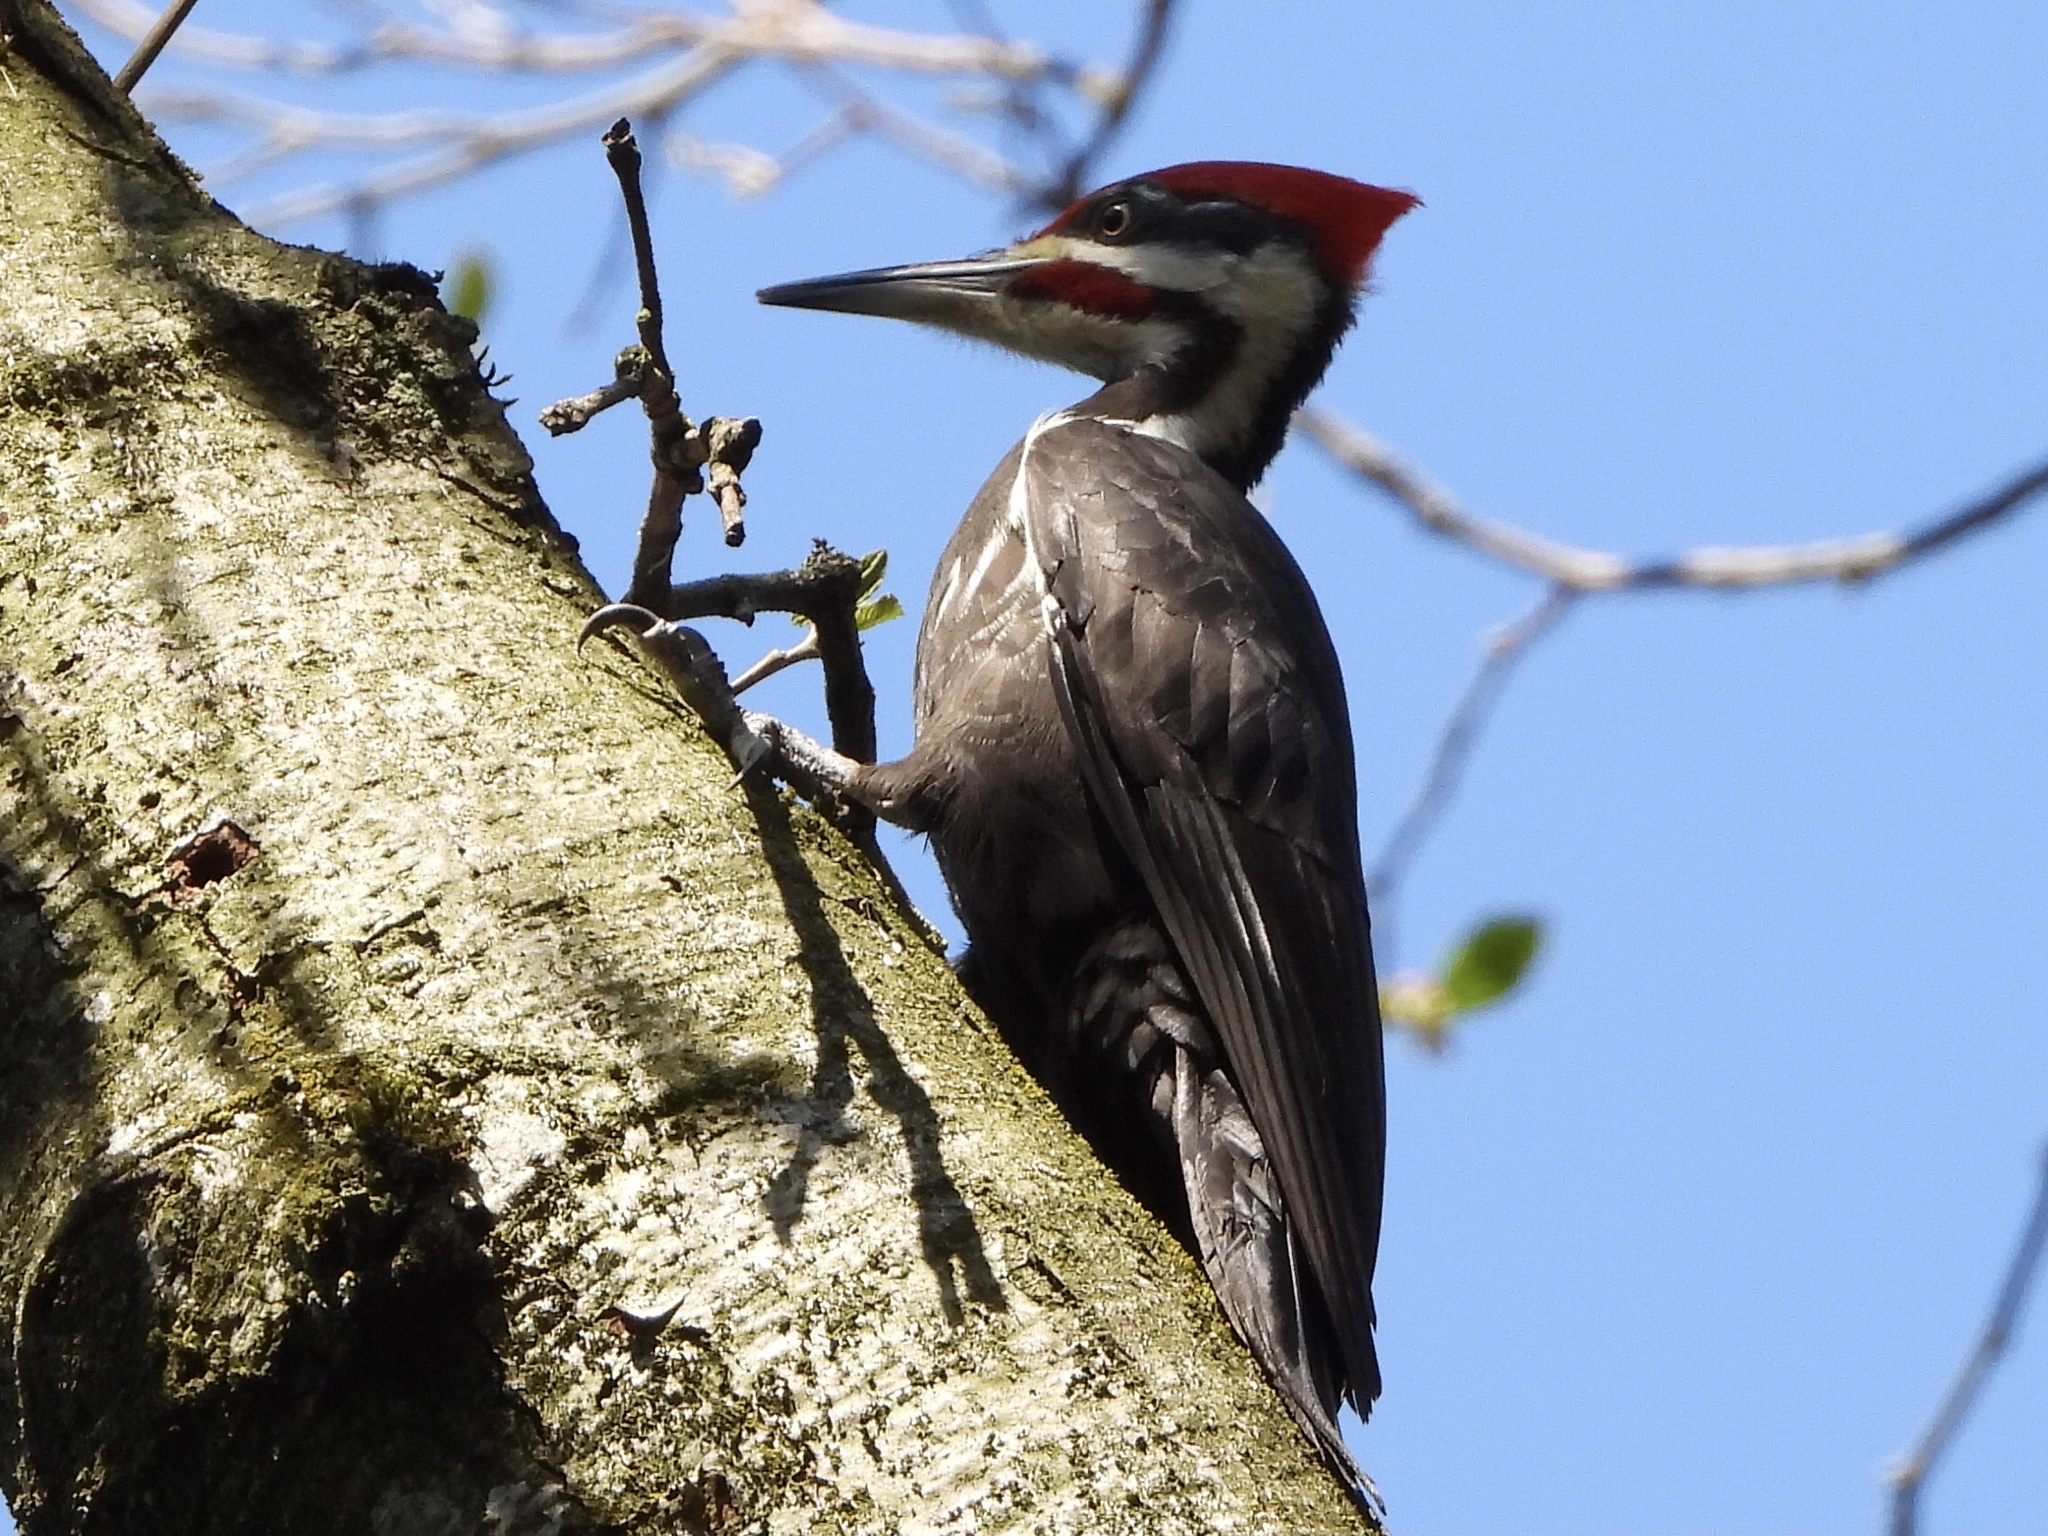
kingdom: Animalia
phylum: Chordata
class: Aves
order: Piciformes
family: Picidae
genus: Dryocopus
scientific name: Dryocopus pileatus
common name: Pileated woodpecker
